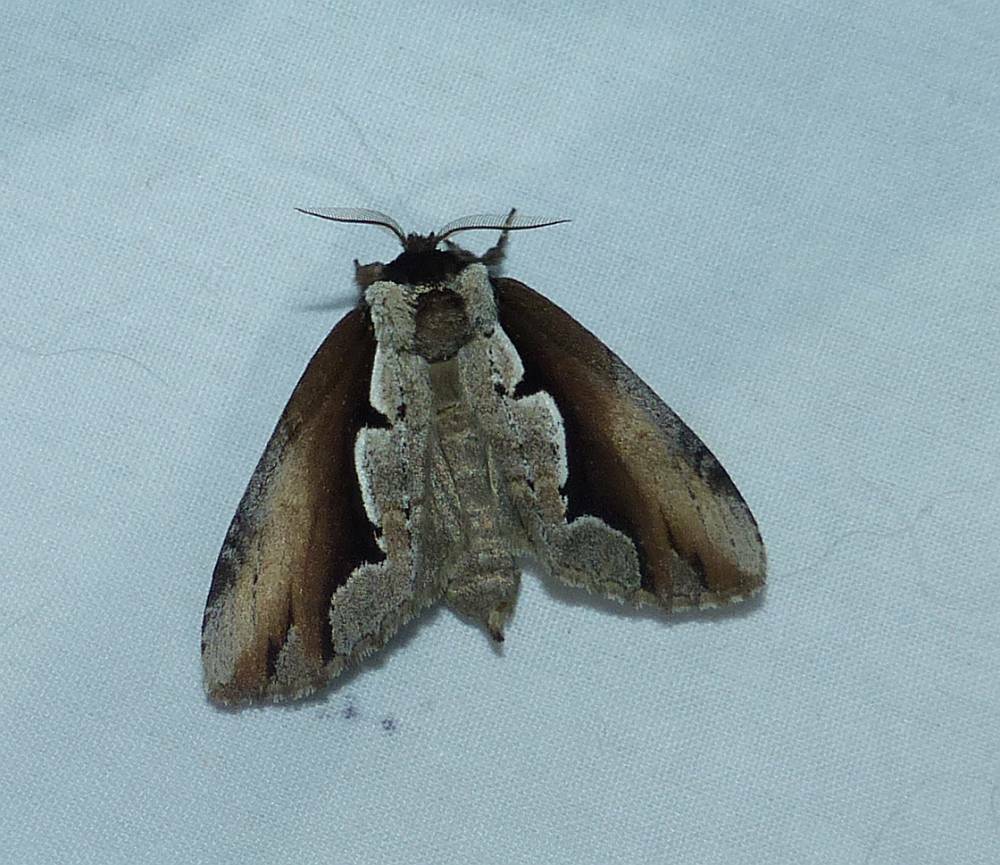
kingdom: Animalia
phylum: Arthropoda
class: Insecta
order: Lepidoptera
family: Notodontidae
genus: Nerice
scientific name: Nerice bidentata
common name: Double-toothed prominent
